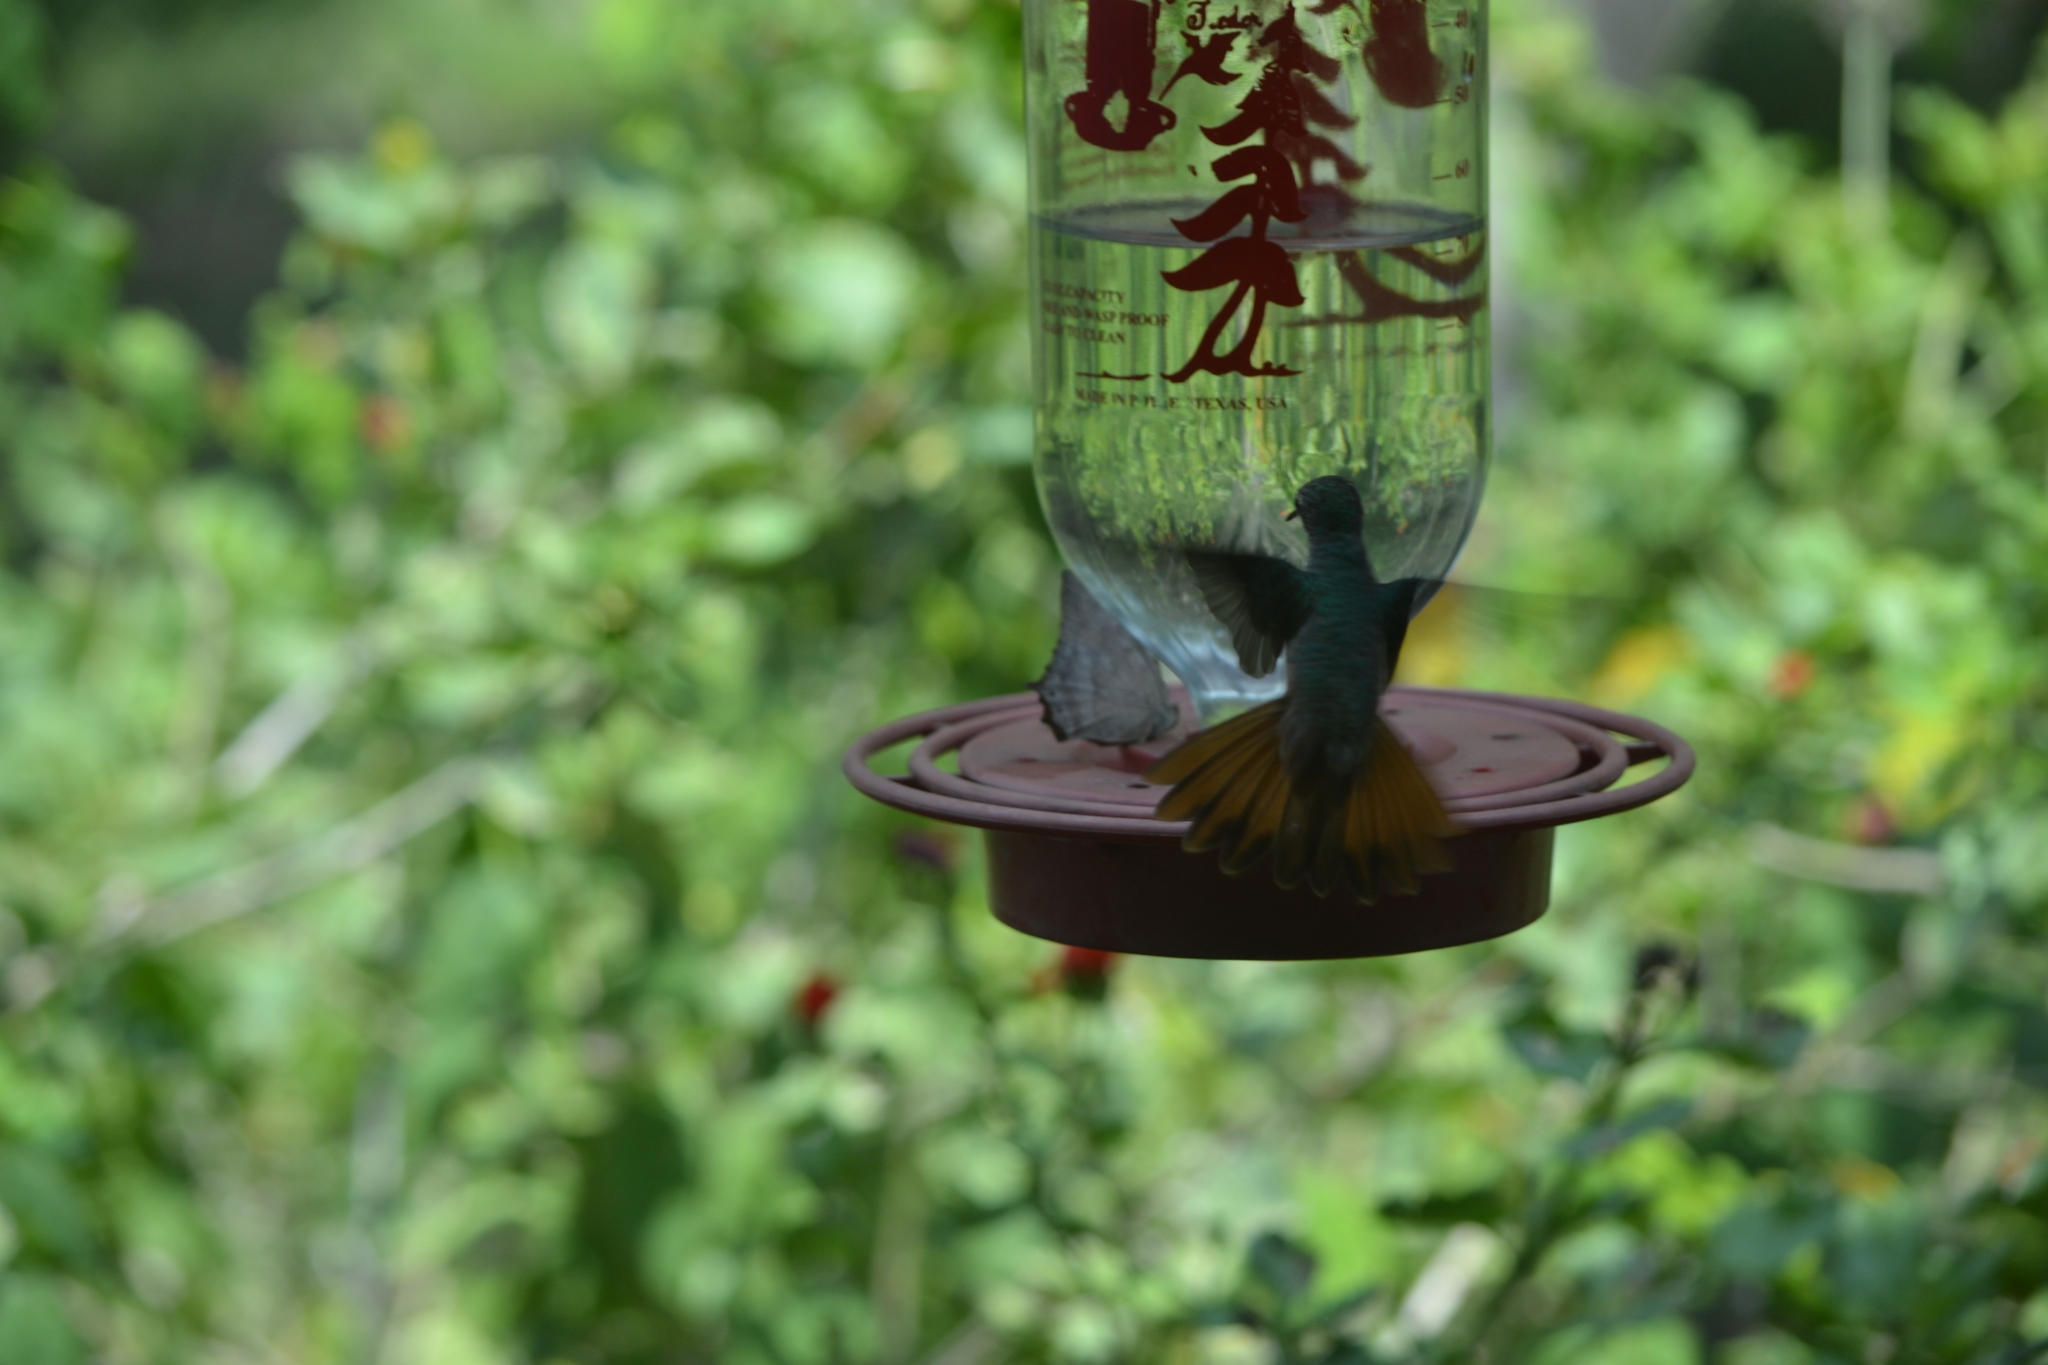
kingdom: Animalia
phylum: Chordata
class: Aves
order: Apodiformes
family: Trochilidae
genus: Amazilia
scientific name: Amazilia yucatanensis
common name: Buff-bellied hummingbird
